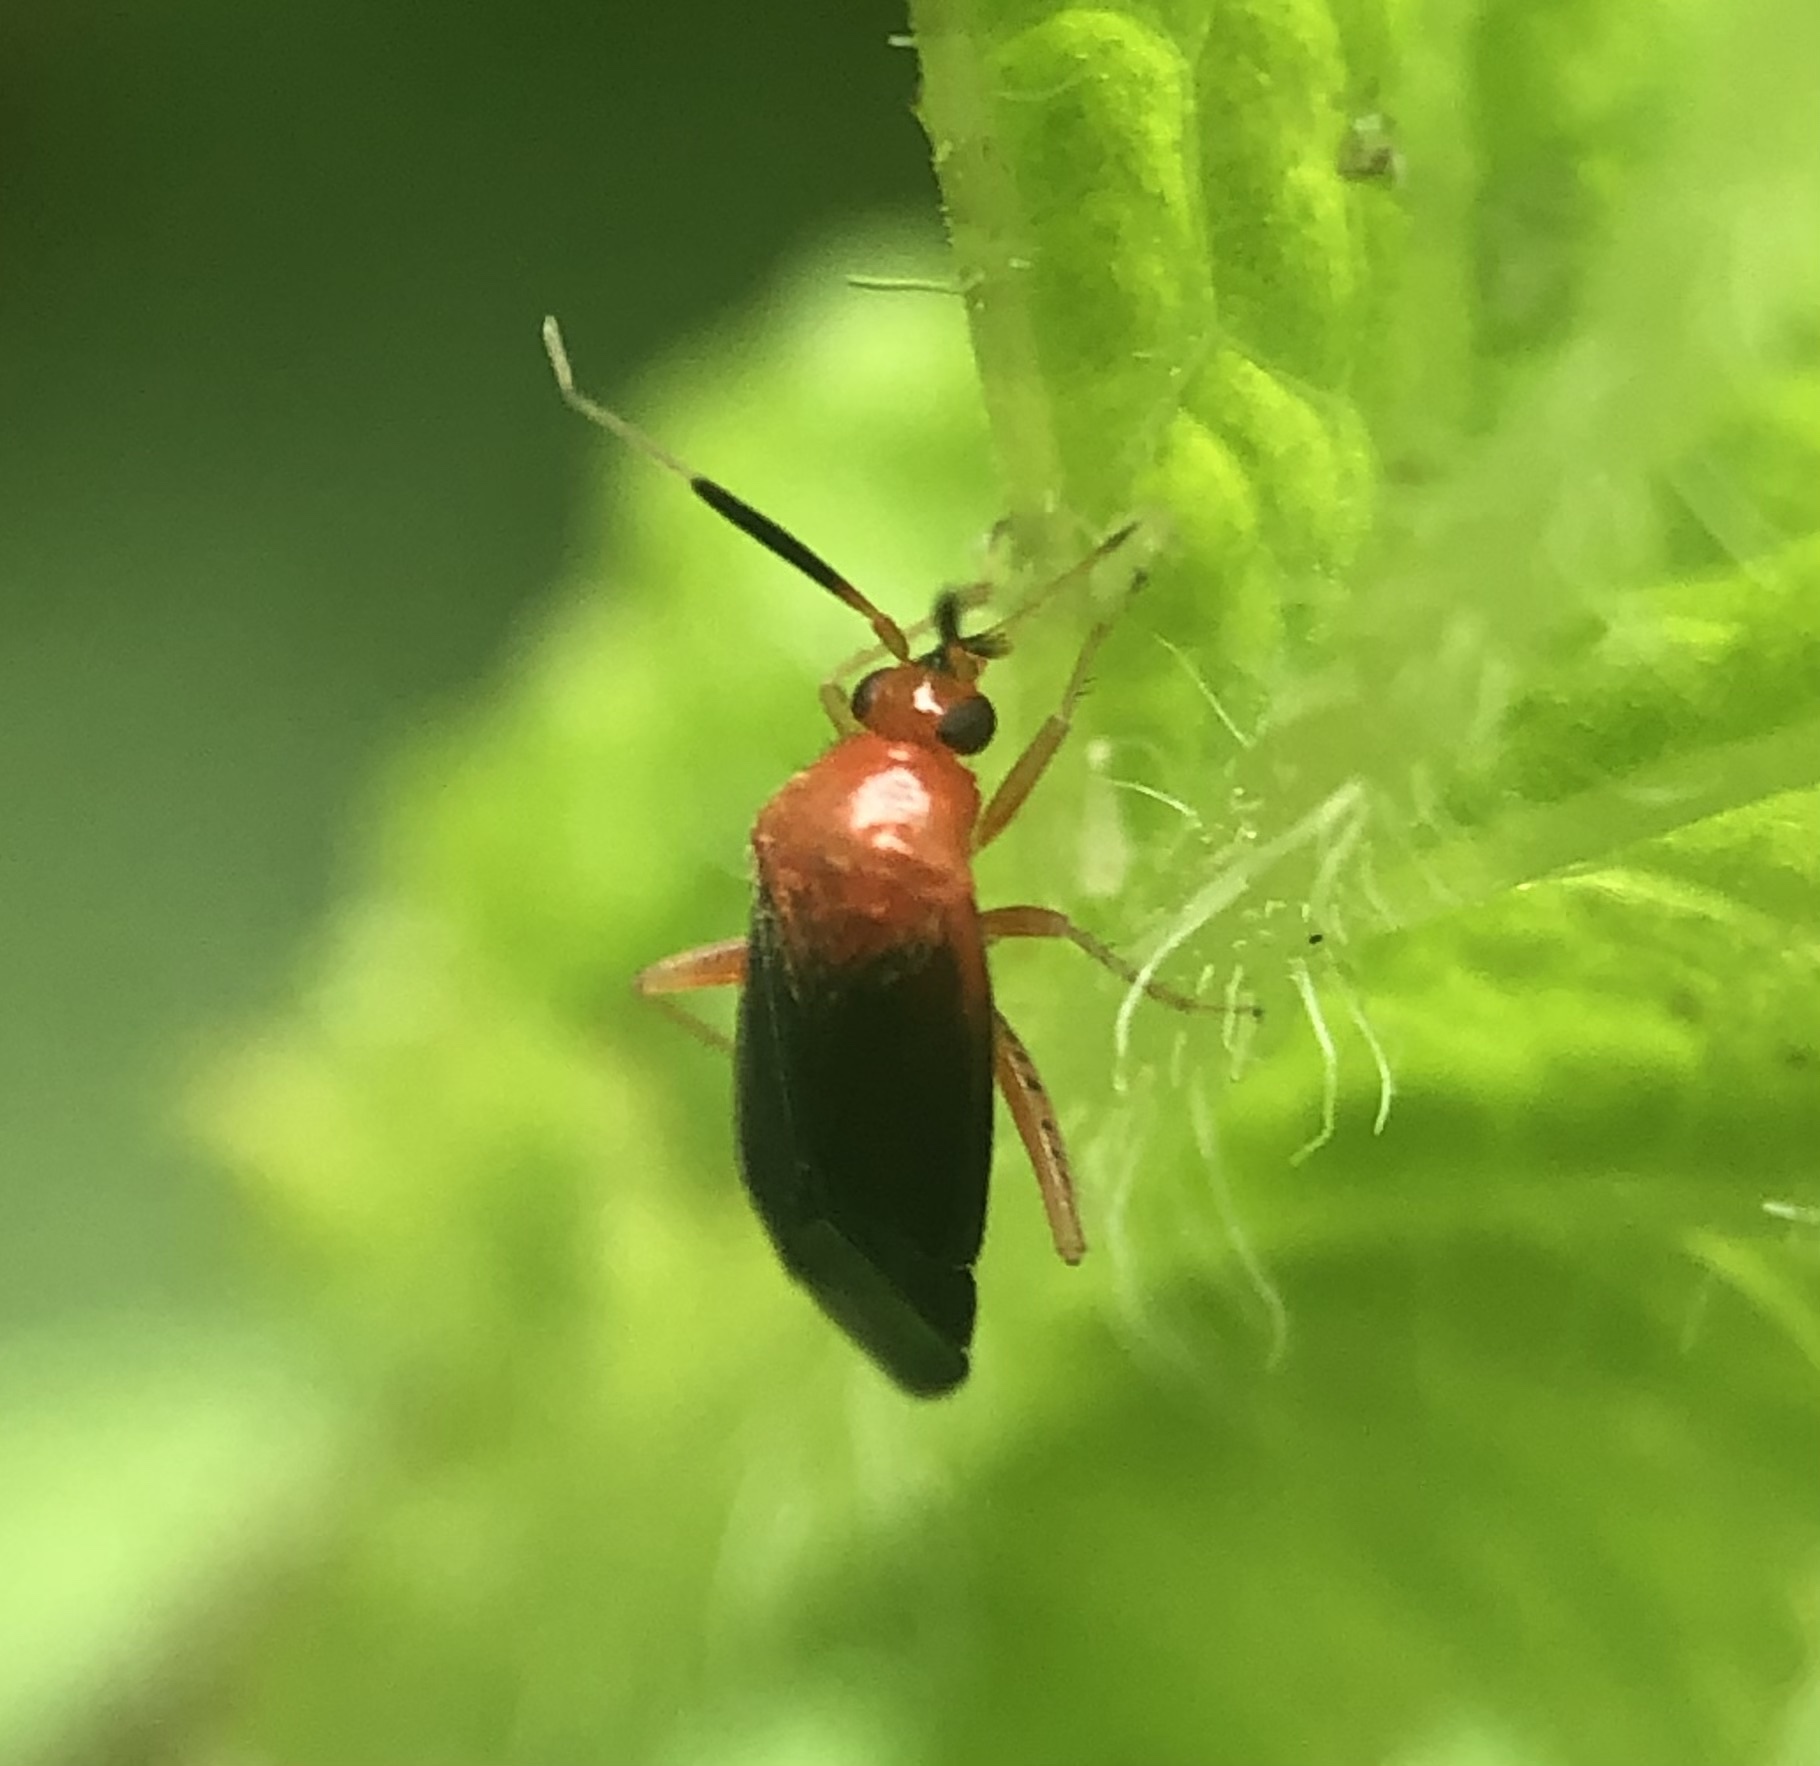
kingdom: Animalia
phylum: Arthropoda
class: Insecta
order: Hemiptera
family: Miridae
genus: Rhinocapsus
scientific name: Rhinocapsus rubricans
